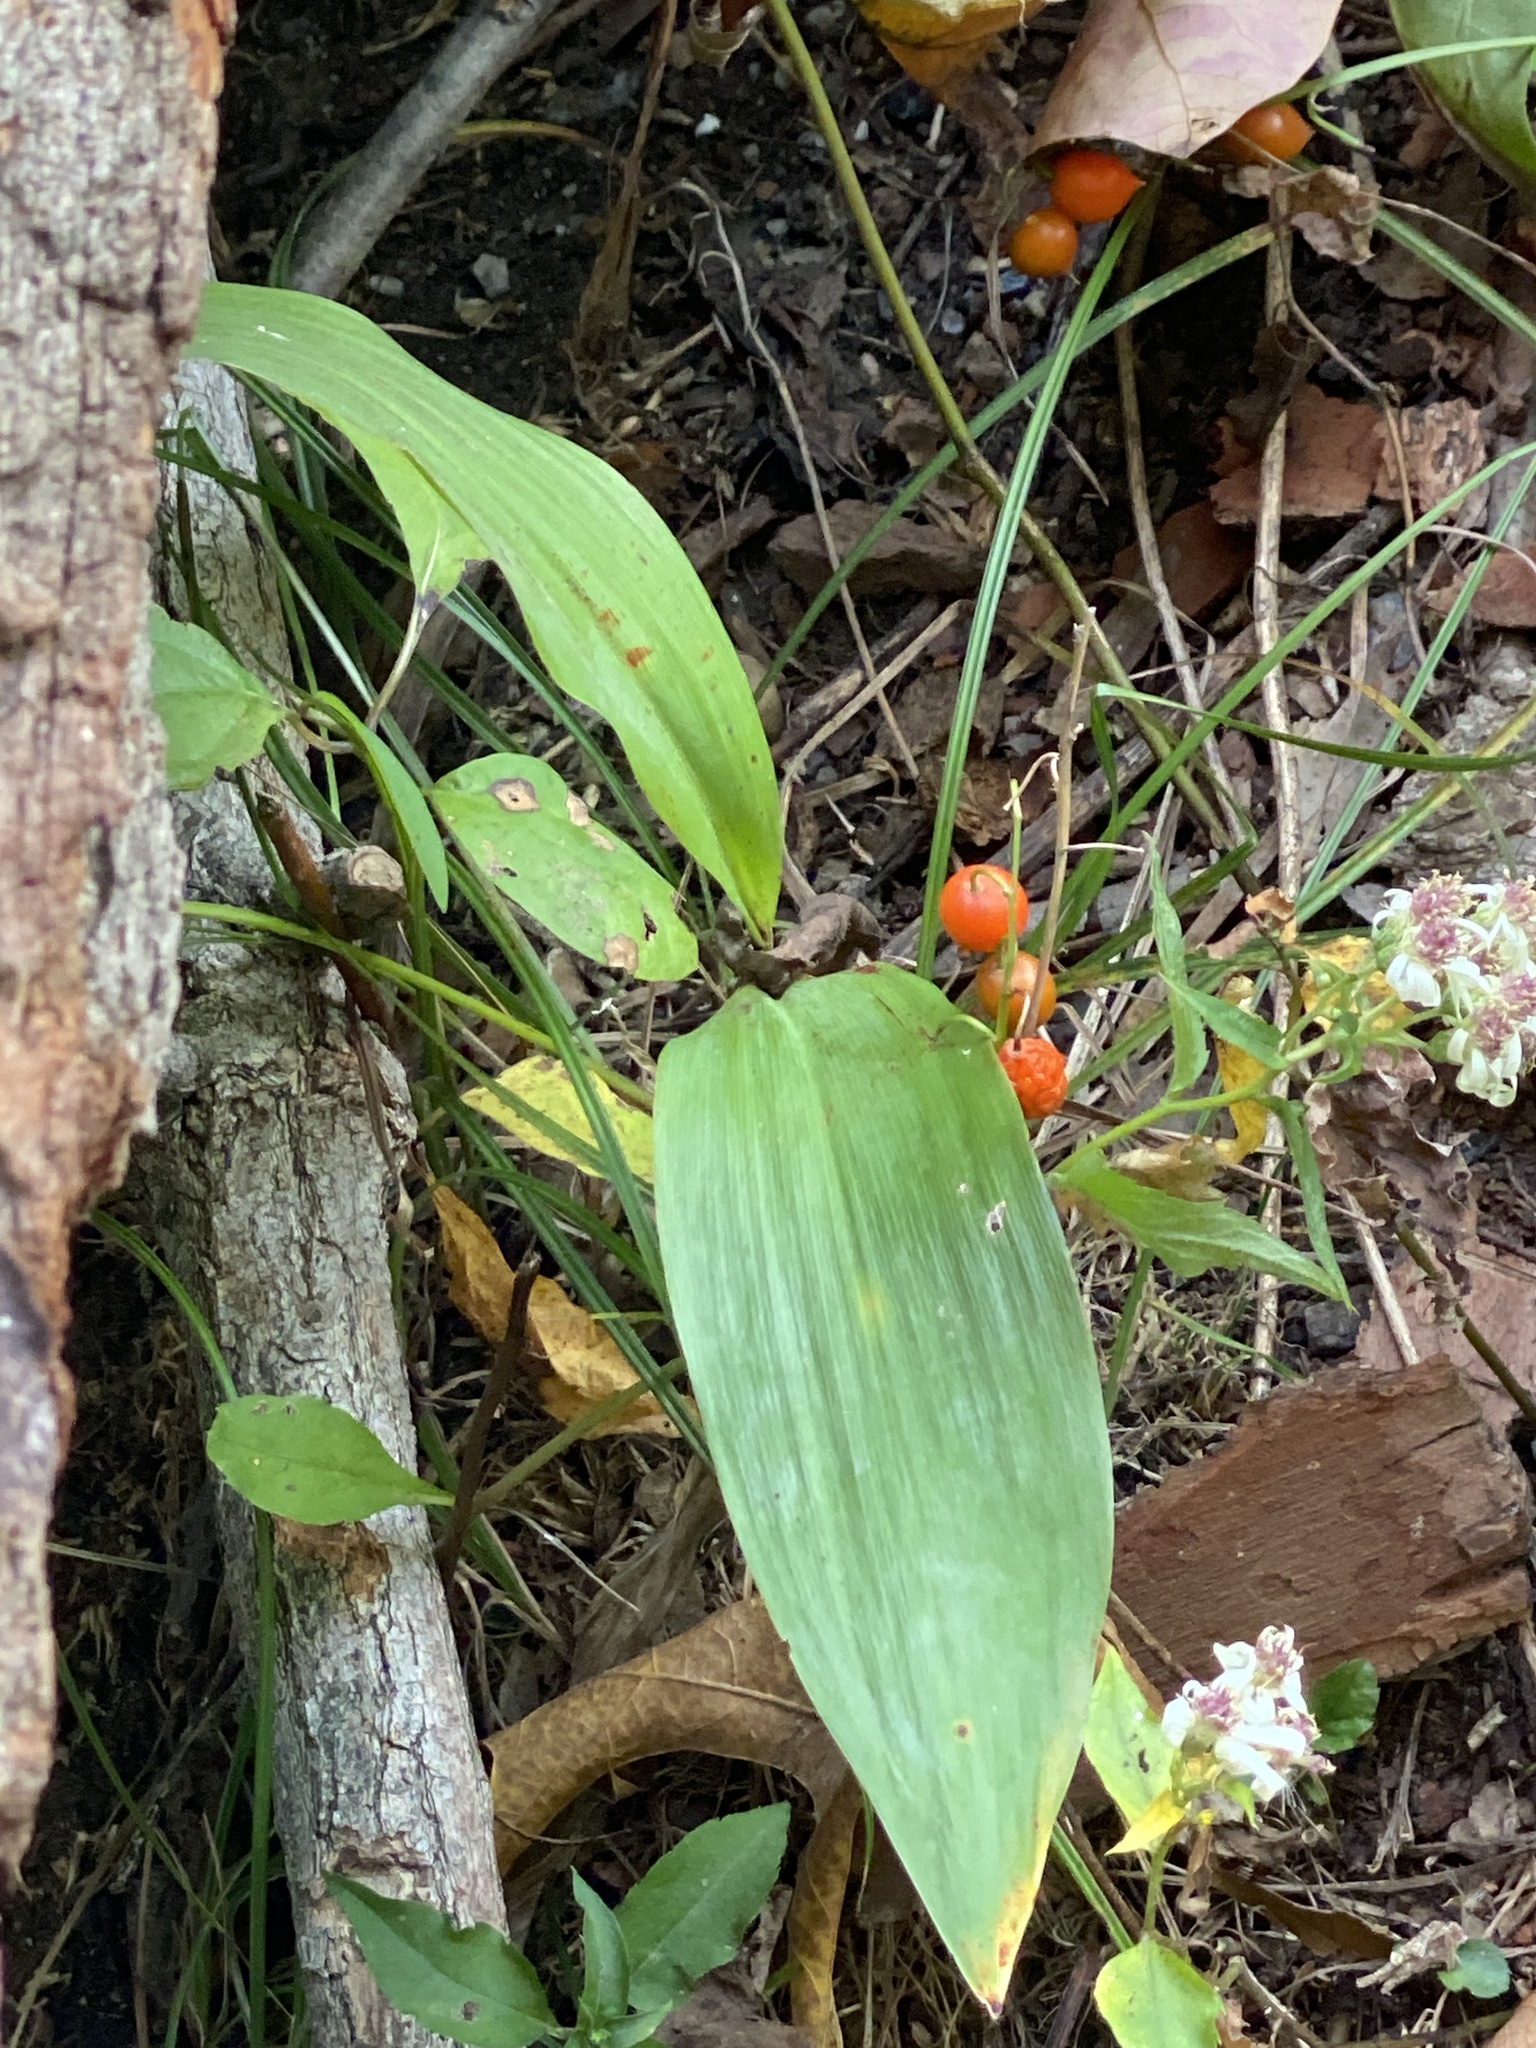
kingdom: Plantae
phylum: Tracheophyta
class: Liliopsida
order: Asparagales
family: Asparagaceae
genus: Convallaria
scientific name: Convallaria majalis
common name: Lily-of-the-valley
